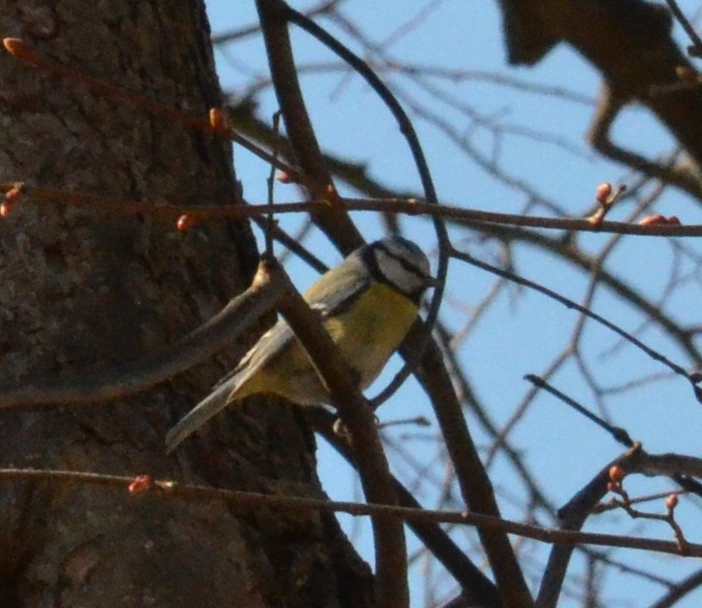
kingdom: Animalia
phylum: Chordata
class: Aves
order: Passeriformes
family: Paridae
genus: Cyanistes
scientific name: Cyanistes caeruleus
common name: Eurasian blue tit
